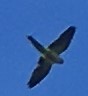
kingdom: Animalia
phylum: Chordata
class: Aves
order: Psittaciformes
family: Psittacidae
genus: Myiopsitta
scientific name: Myiopsitta monachus
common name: Monk parakeet
